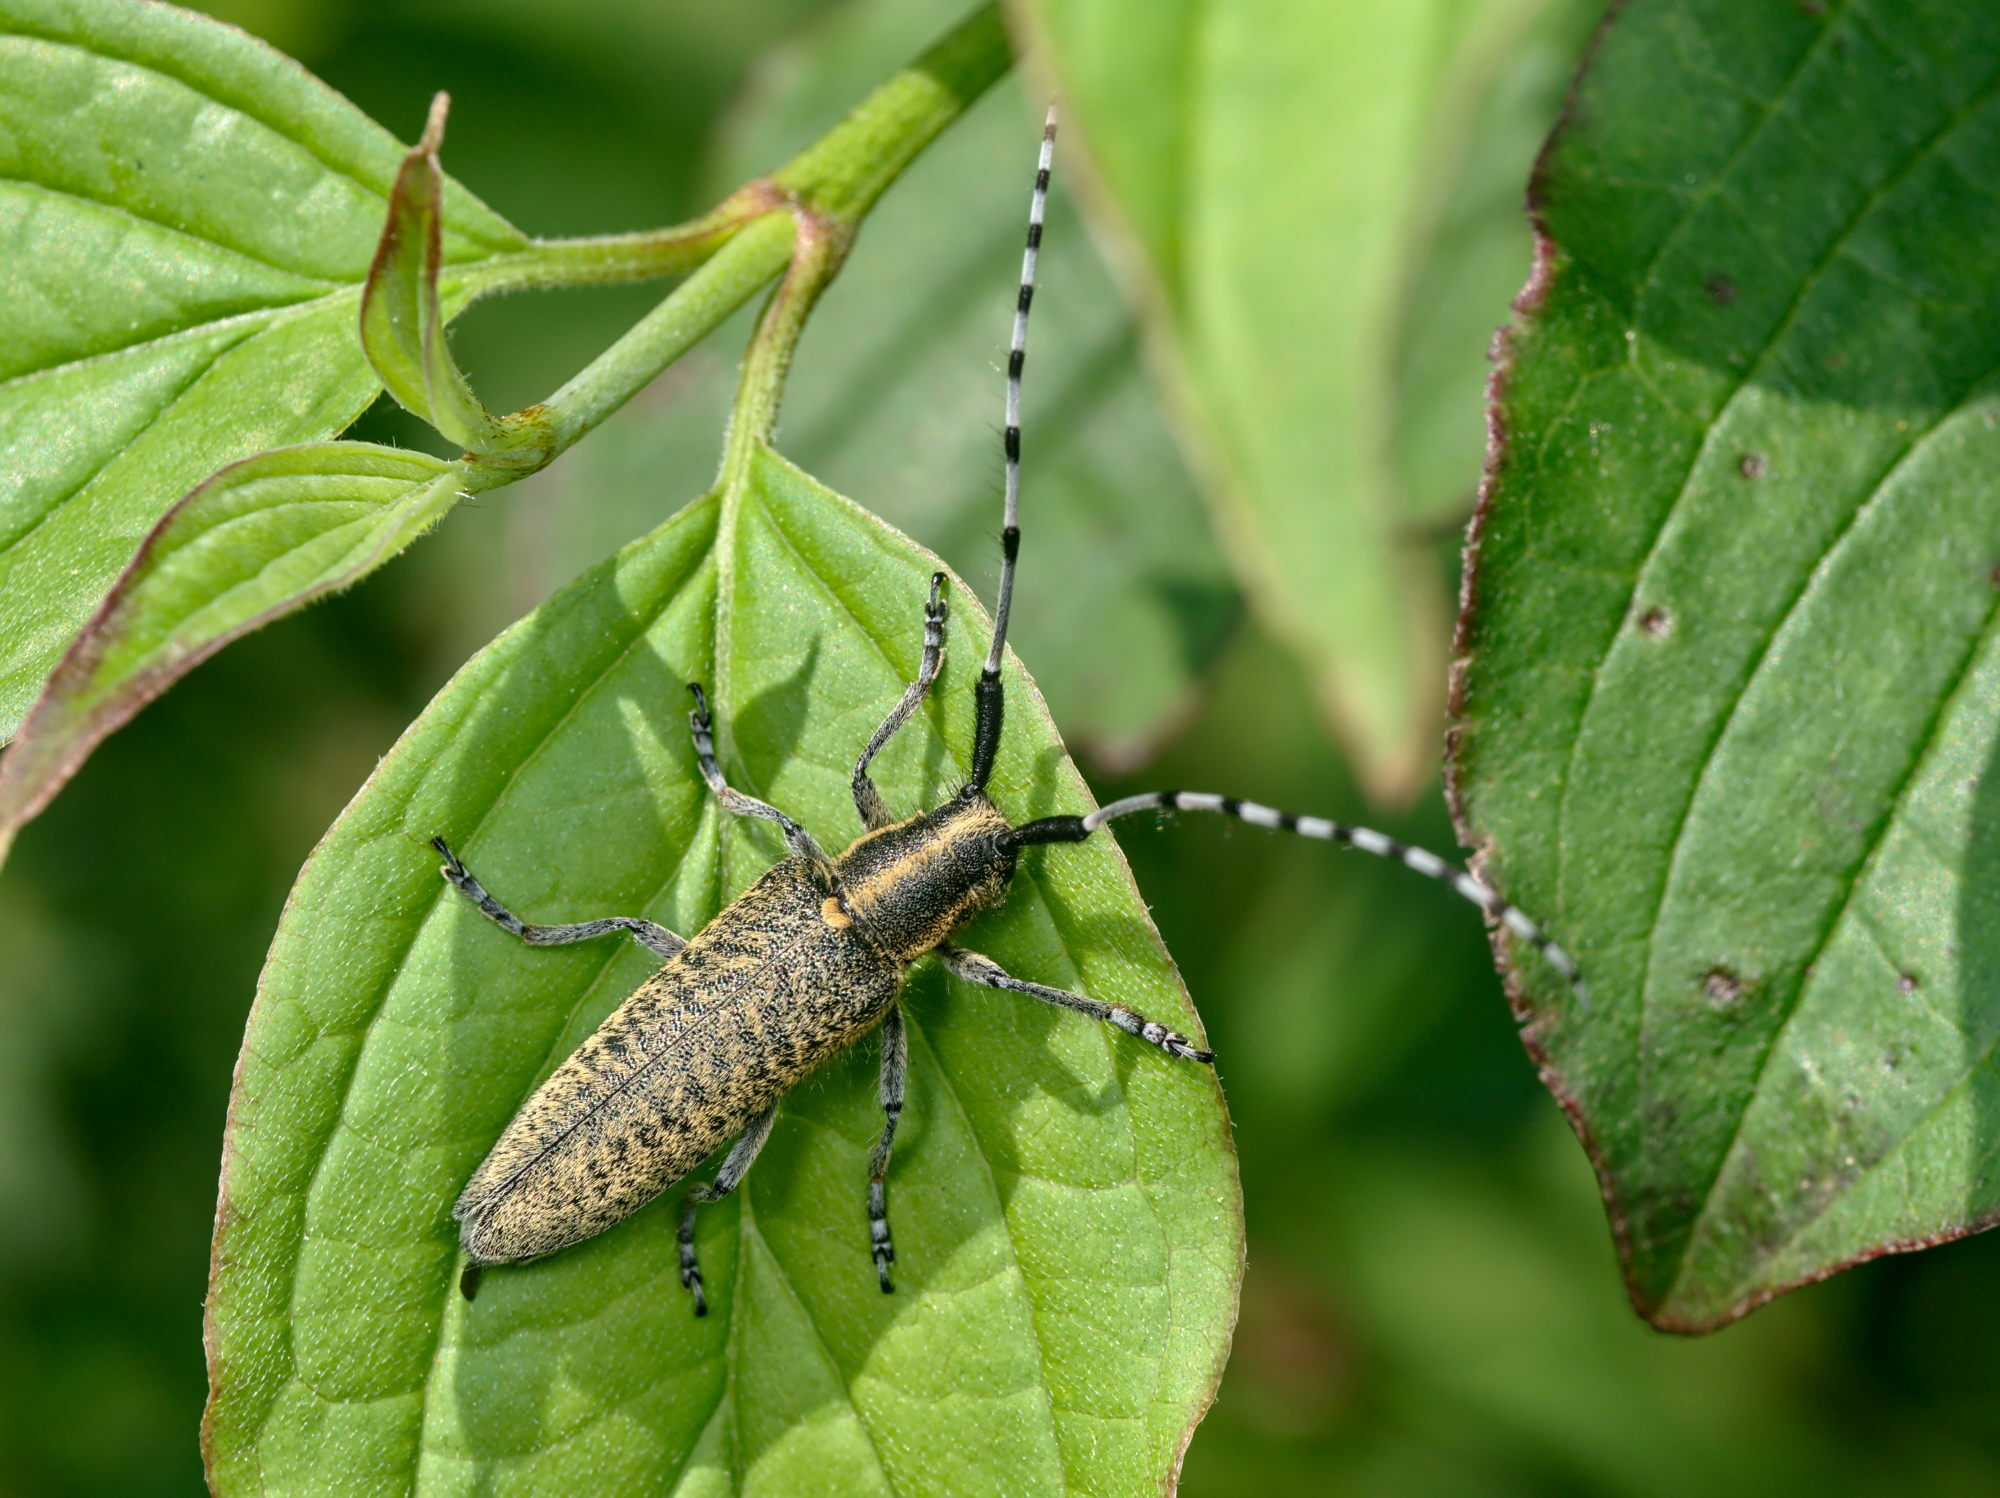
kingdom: Animalia
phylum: Arthropoda
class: Insecta
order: Coleoptera
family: Cerambycidae
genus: Agapanthia
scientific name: Agapanthia villosoviridescens
